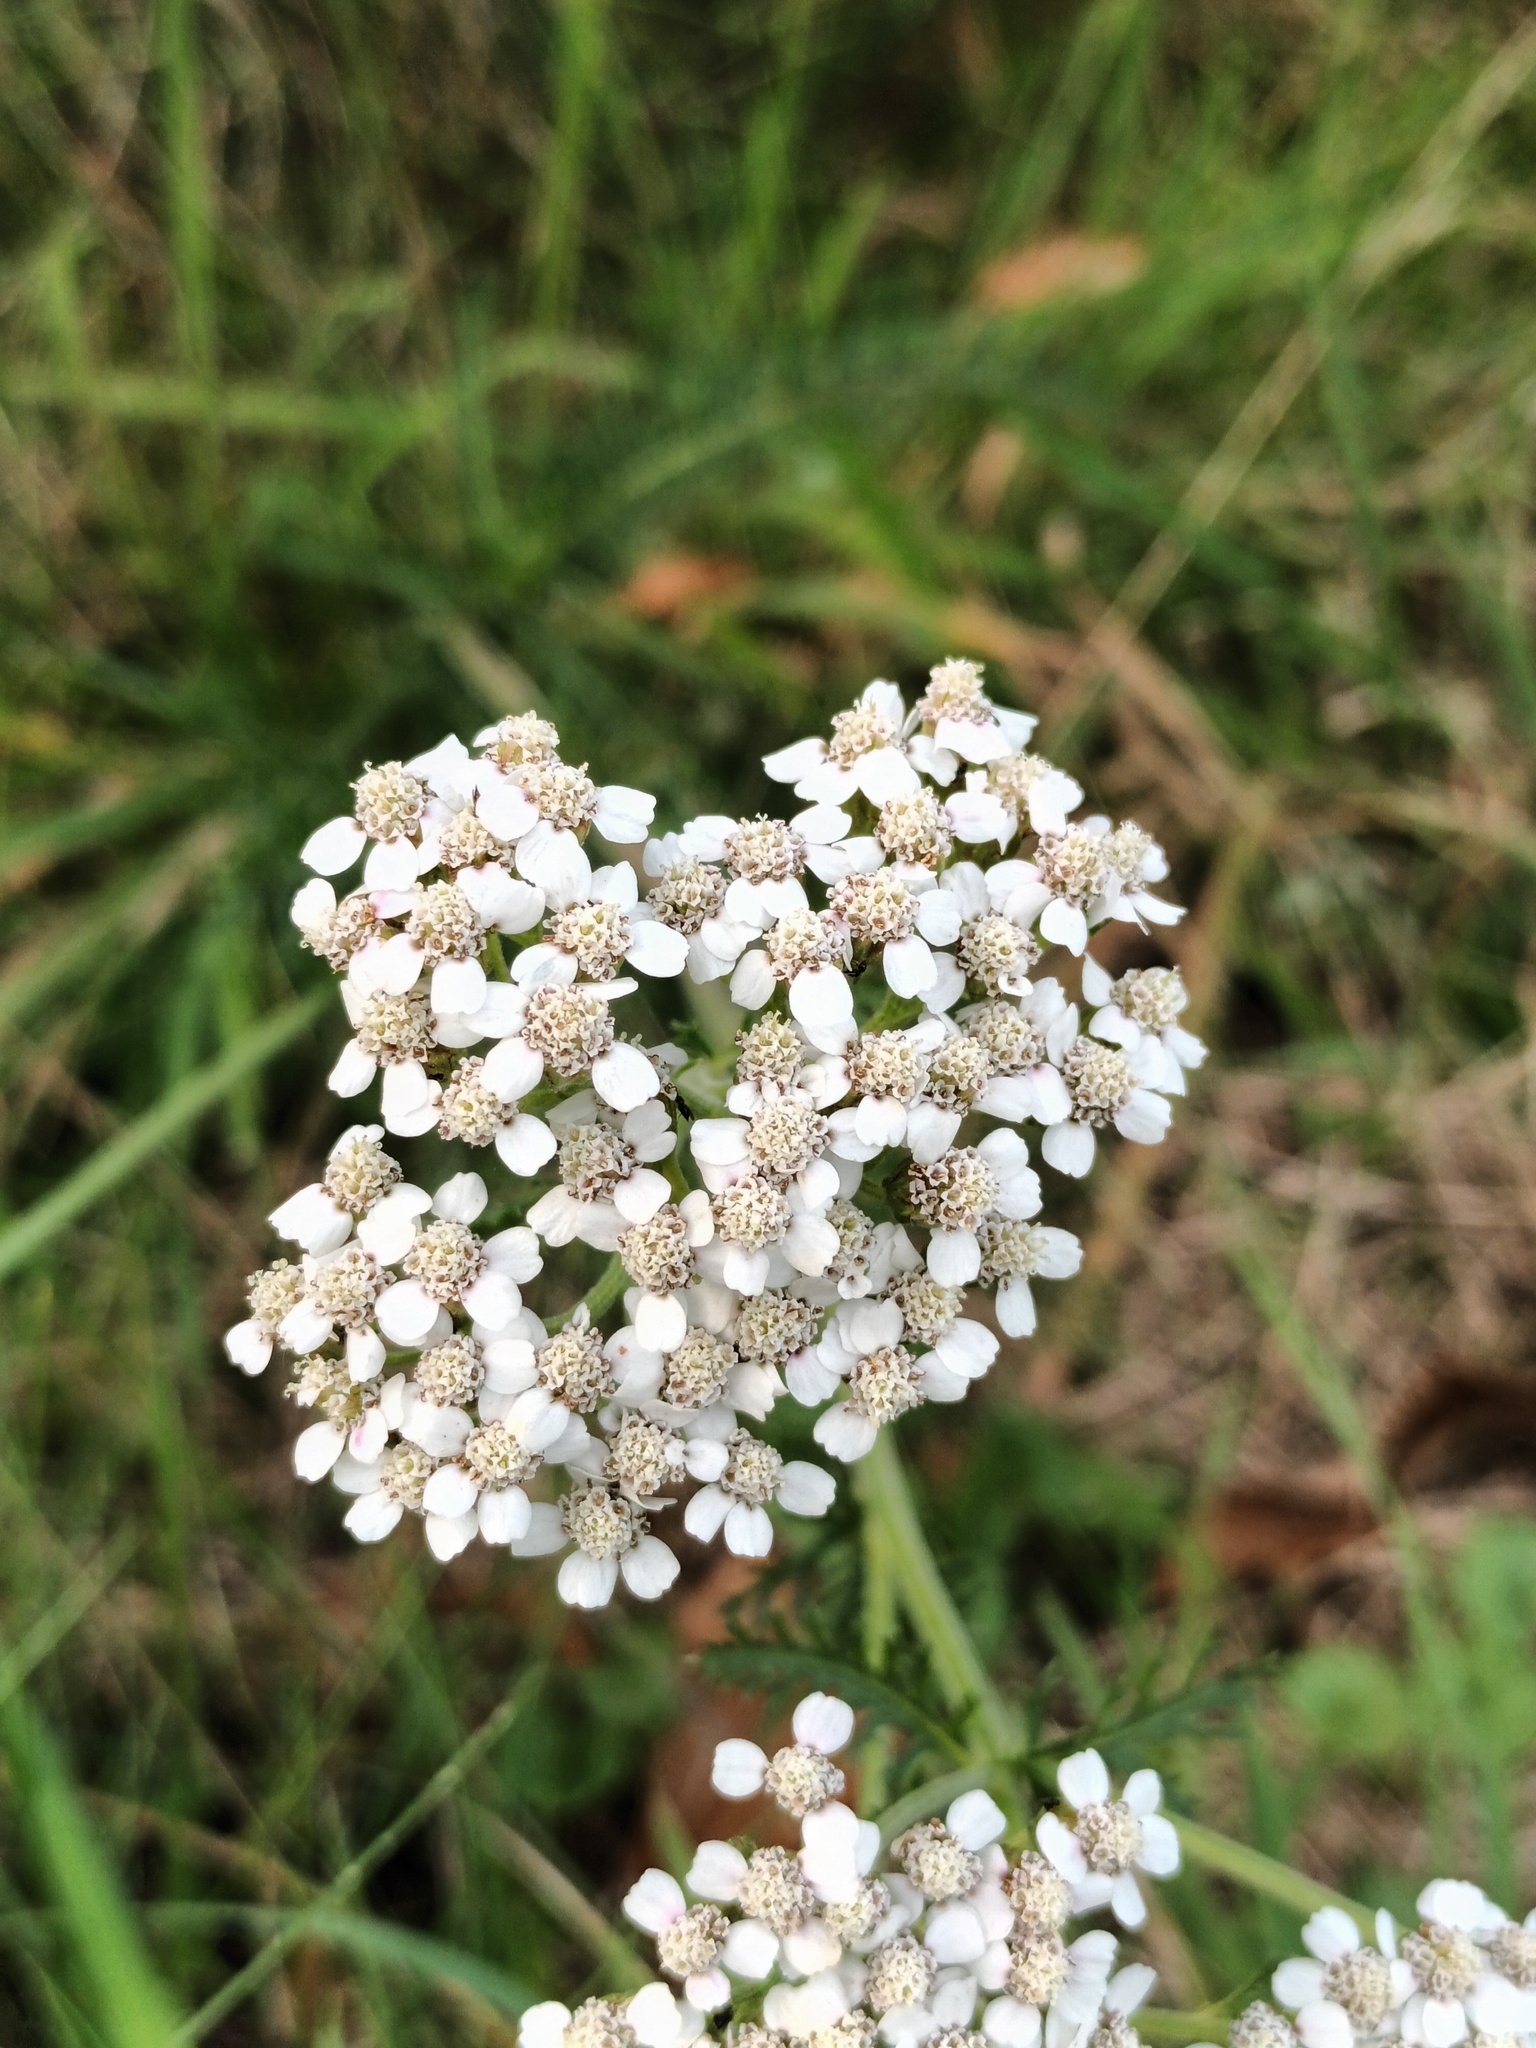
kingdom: Plantae
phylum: Tracheophyta
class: Magnoliopsida
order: Asterales
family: Asteraceae
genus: Achillea
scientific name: Achillea millefolium
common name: Yarrow
